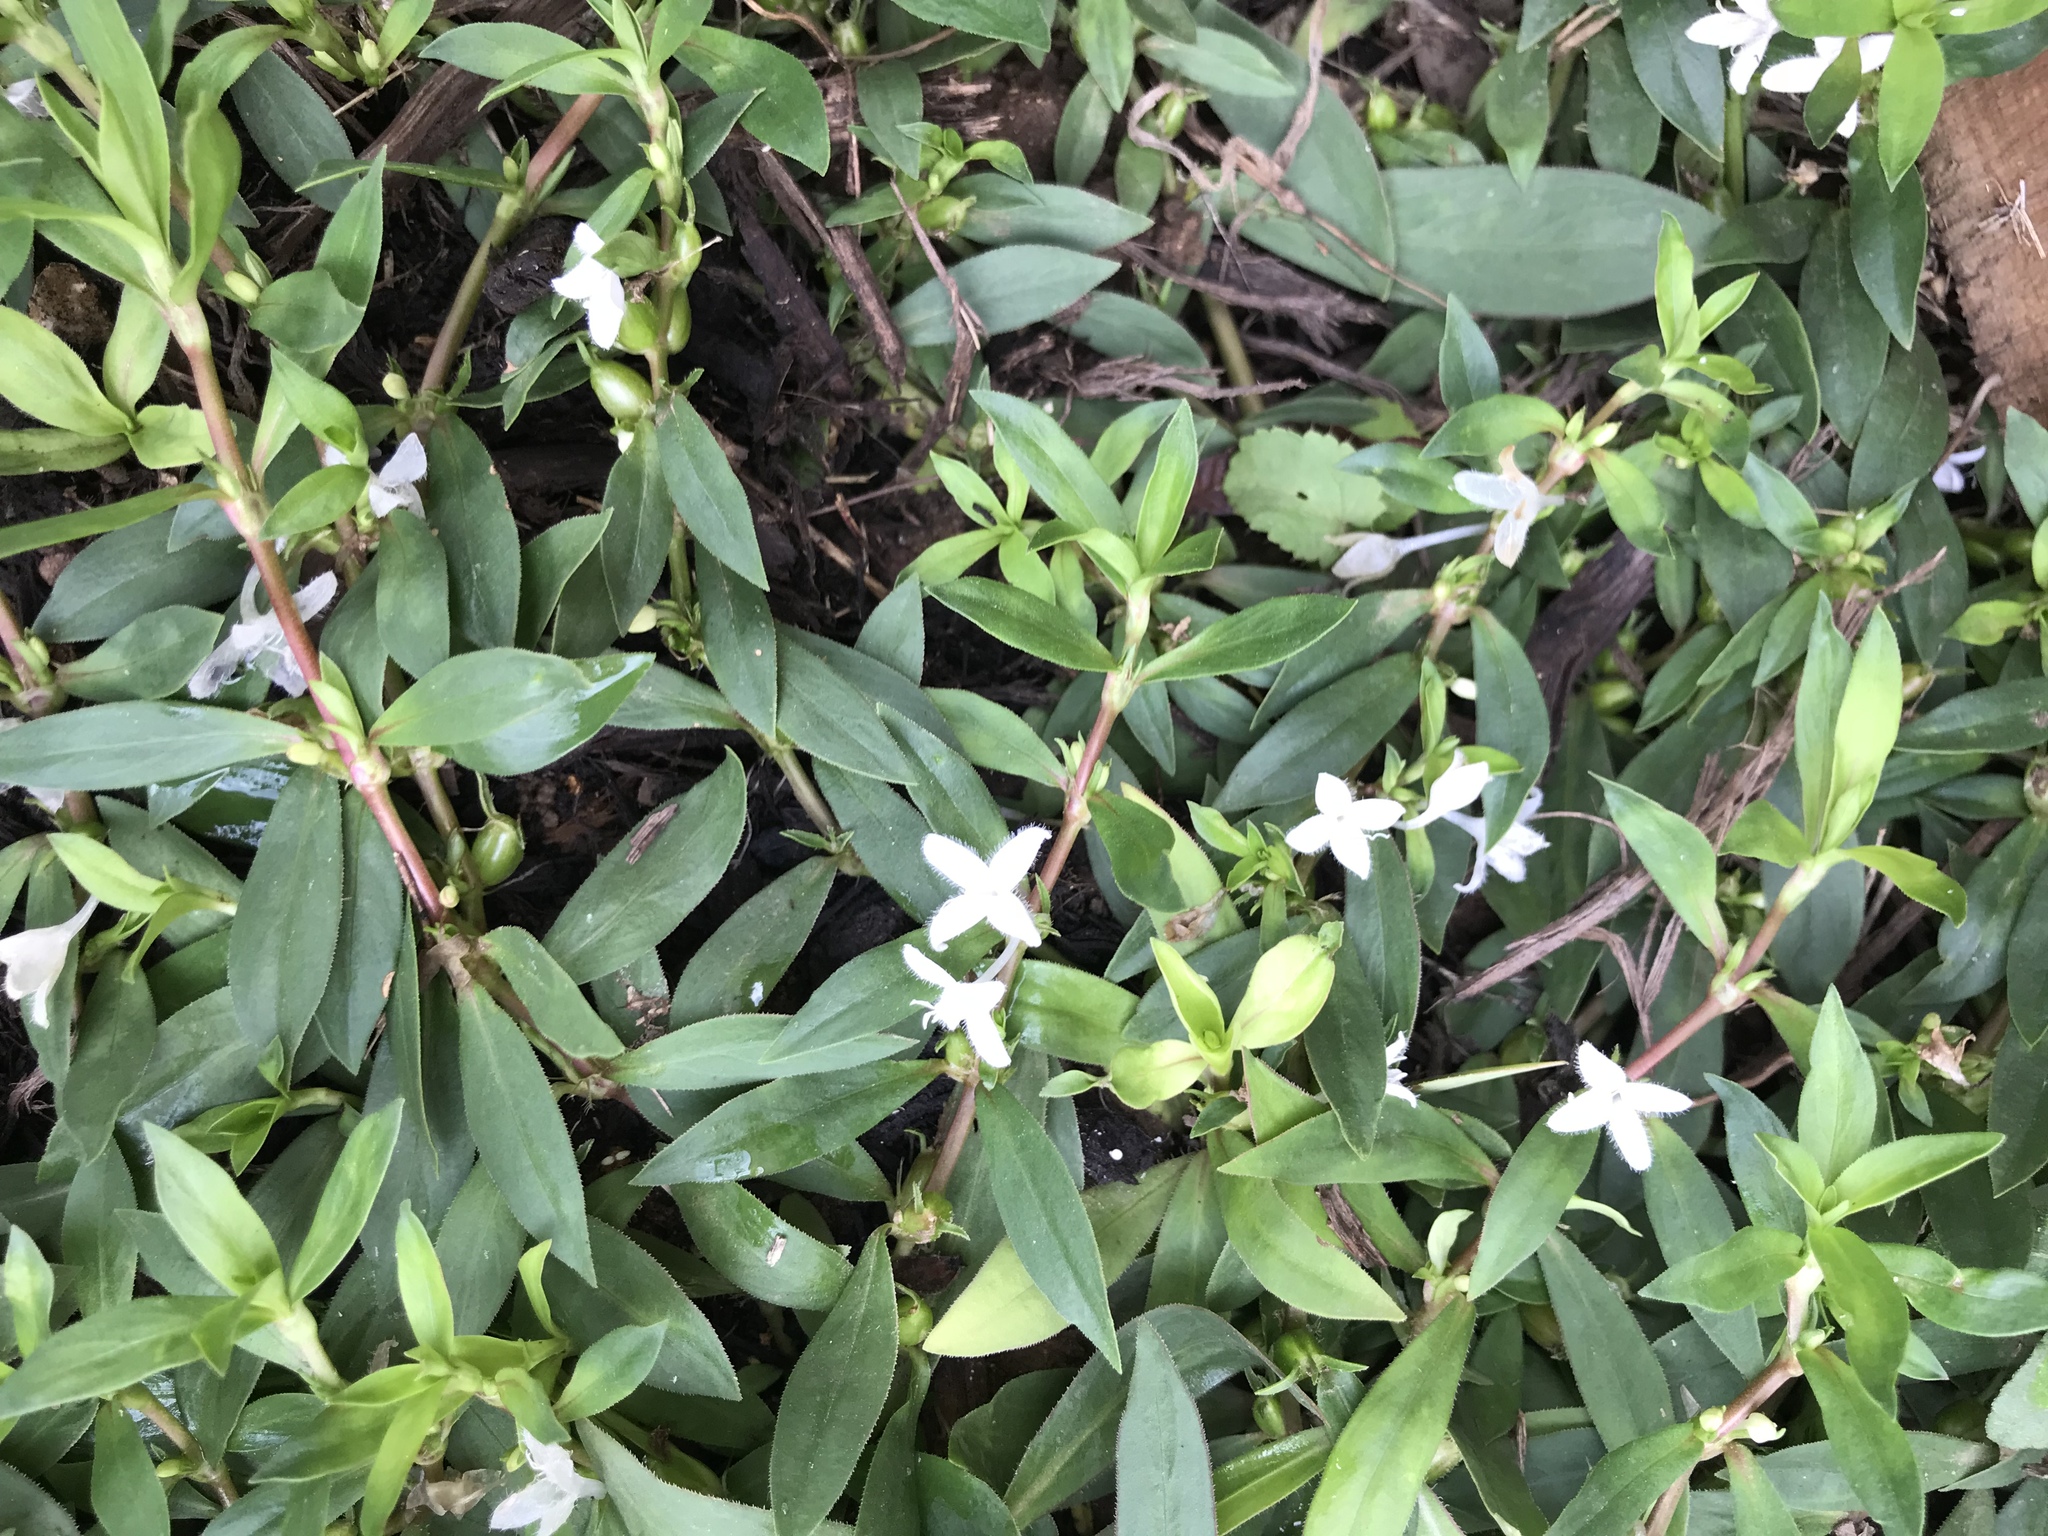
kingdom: Plantae
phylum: Tracheophyta
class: Magnoliopsida
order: Gentianales
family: Rubiaceae
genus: Diodia
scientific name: Diodia virginiana
